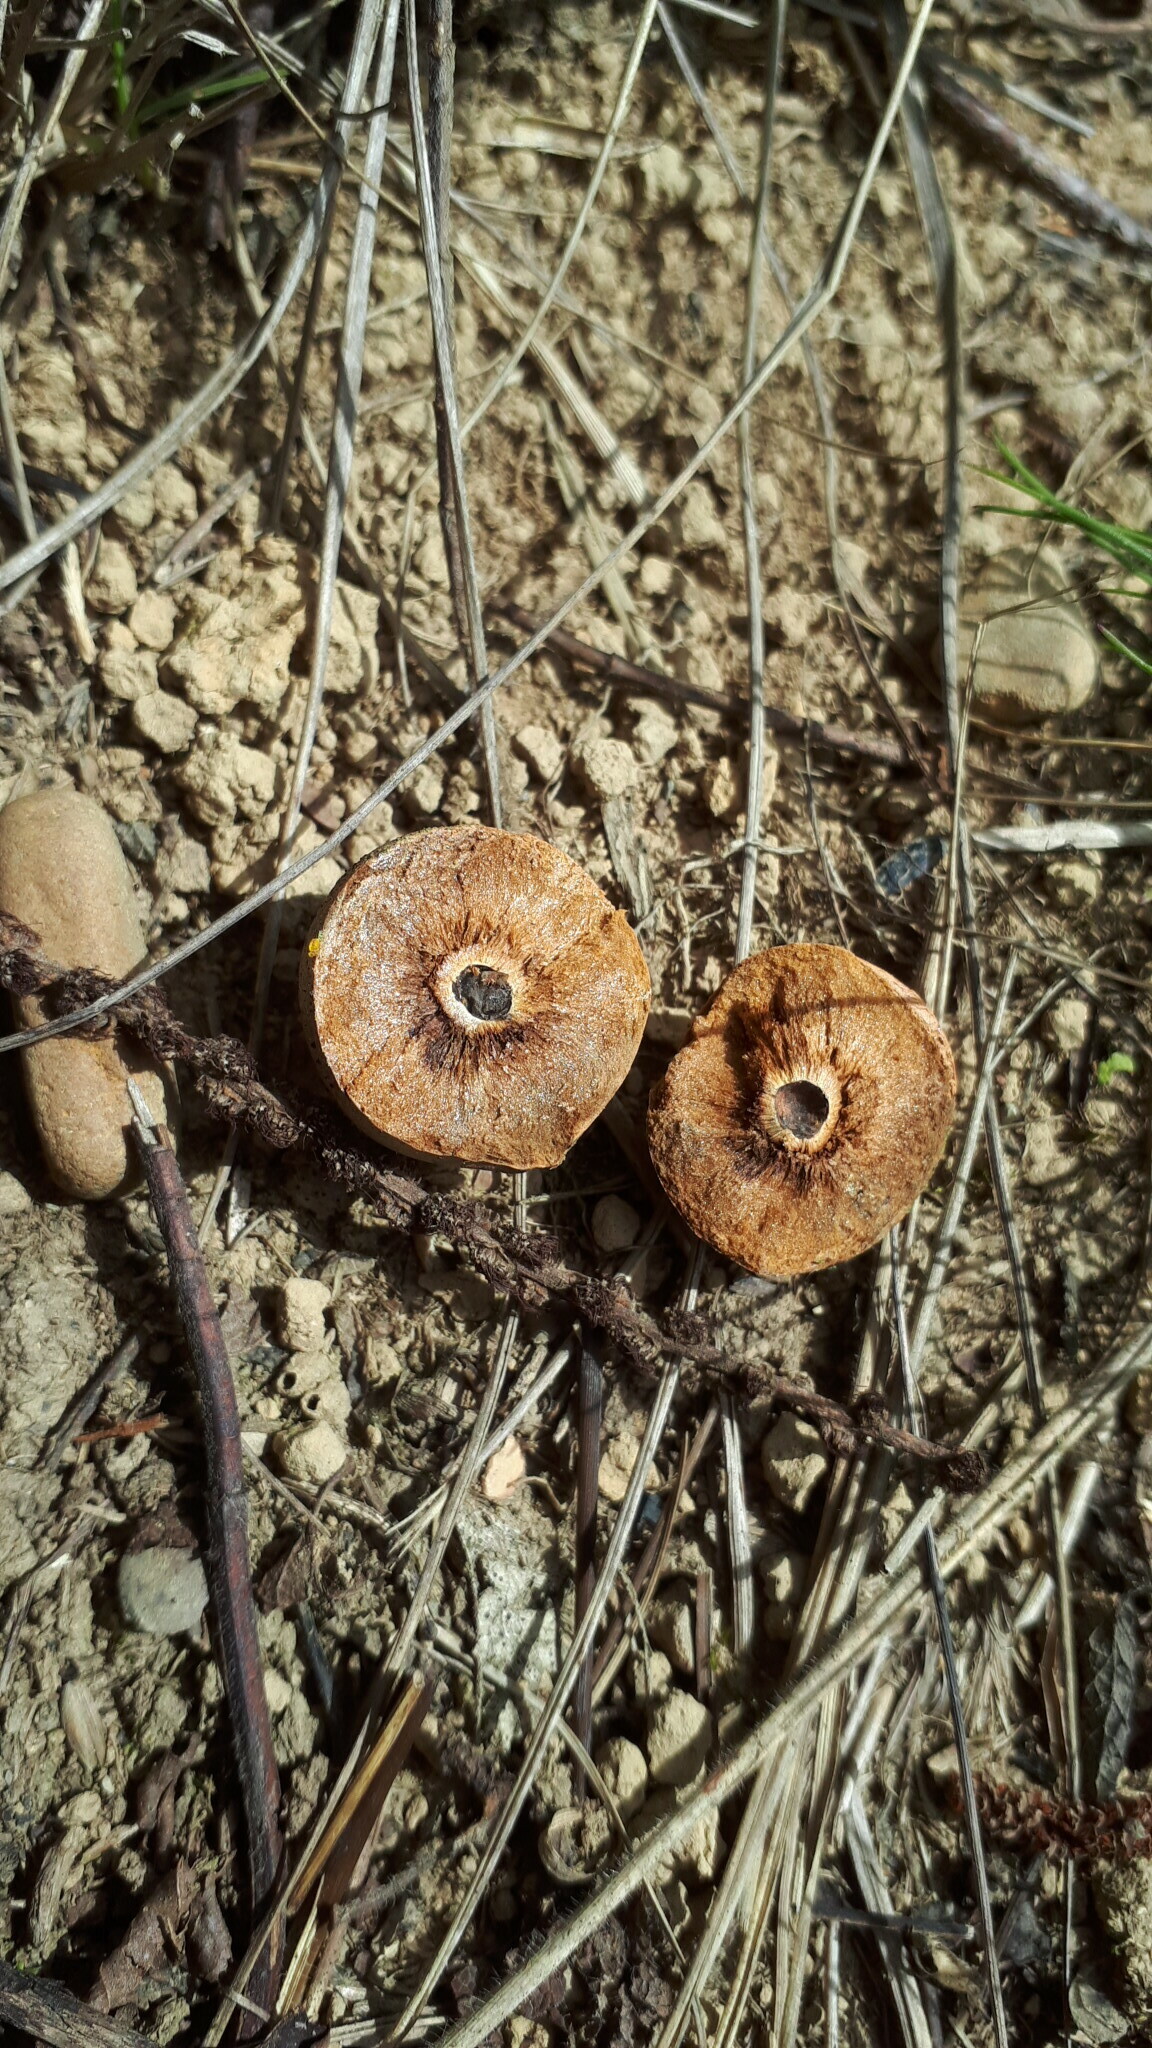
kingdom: Animalia
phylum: Arthropoda
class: Insecta
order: Hymenoptera
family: Cynipidae
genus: Andricus
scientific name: Andricus kollari
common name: Marble gall
